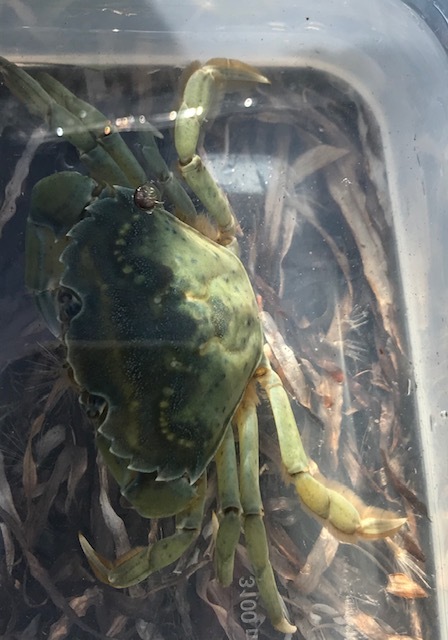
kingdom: Animalia
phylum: Arthropoda
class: Malacostraca
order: Decapoda
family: Carcinidae
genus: Carcinus
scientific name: Carcinus maenas
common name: European green crab
